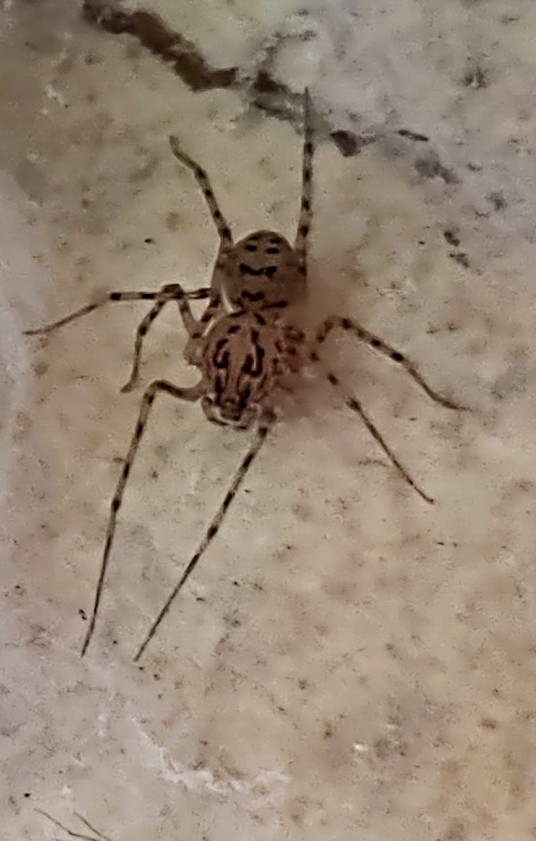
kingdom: Animalia
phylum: Arthropoda
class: Arachnida
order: Araneae
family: Scytodidae
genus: Scytodes
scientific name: Scytodes thoracica
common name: Spitting spider
